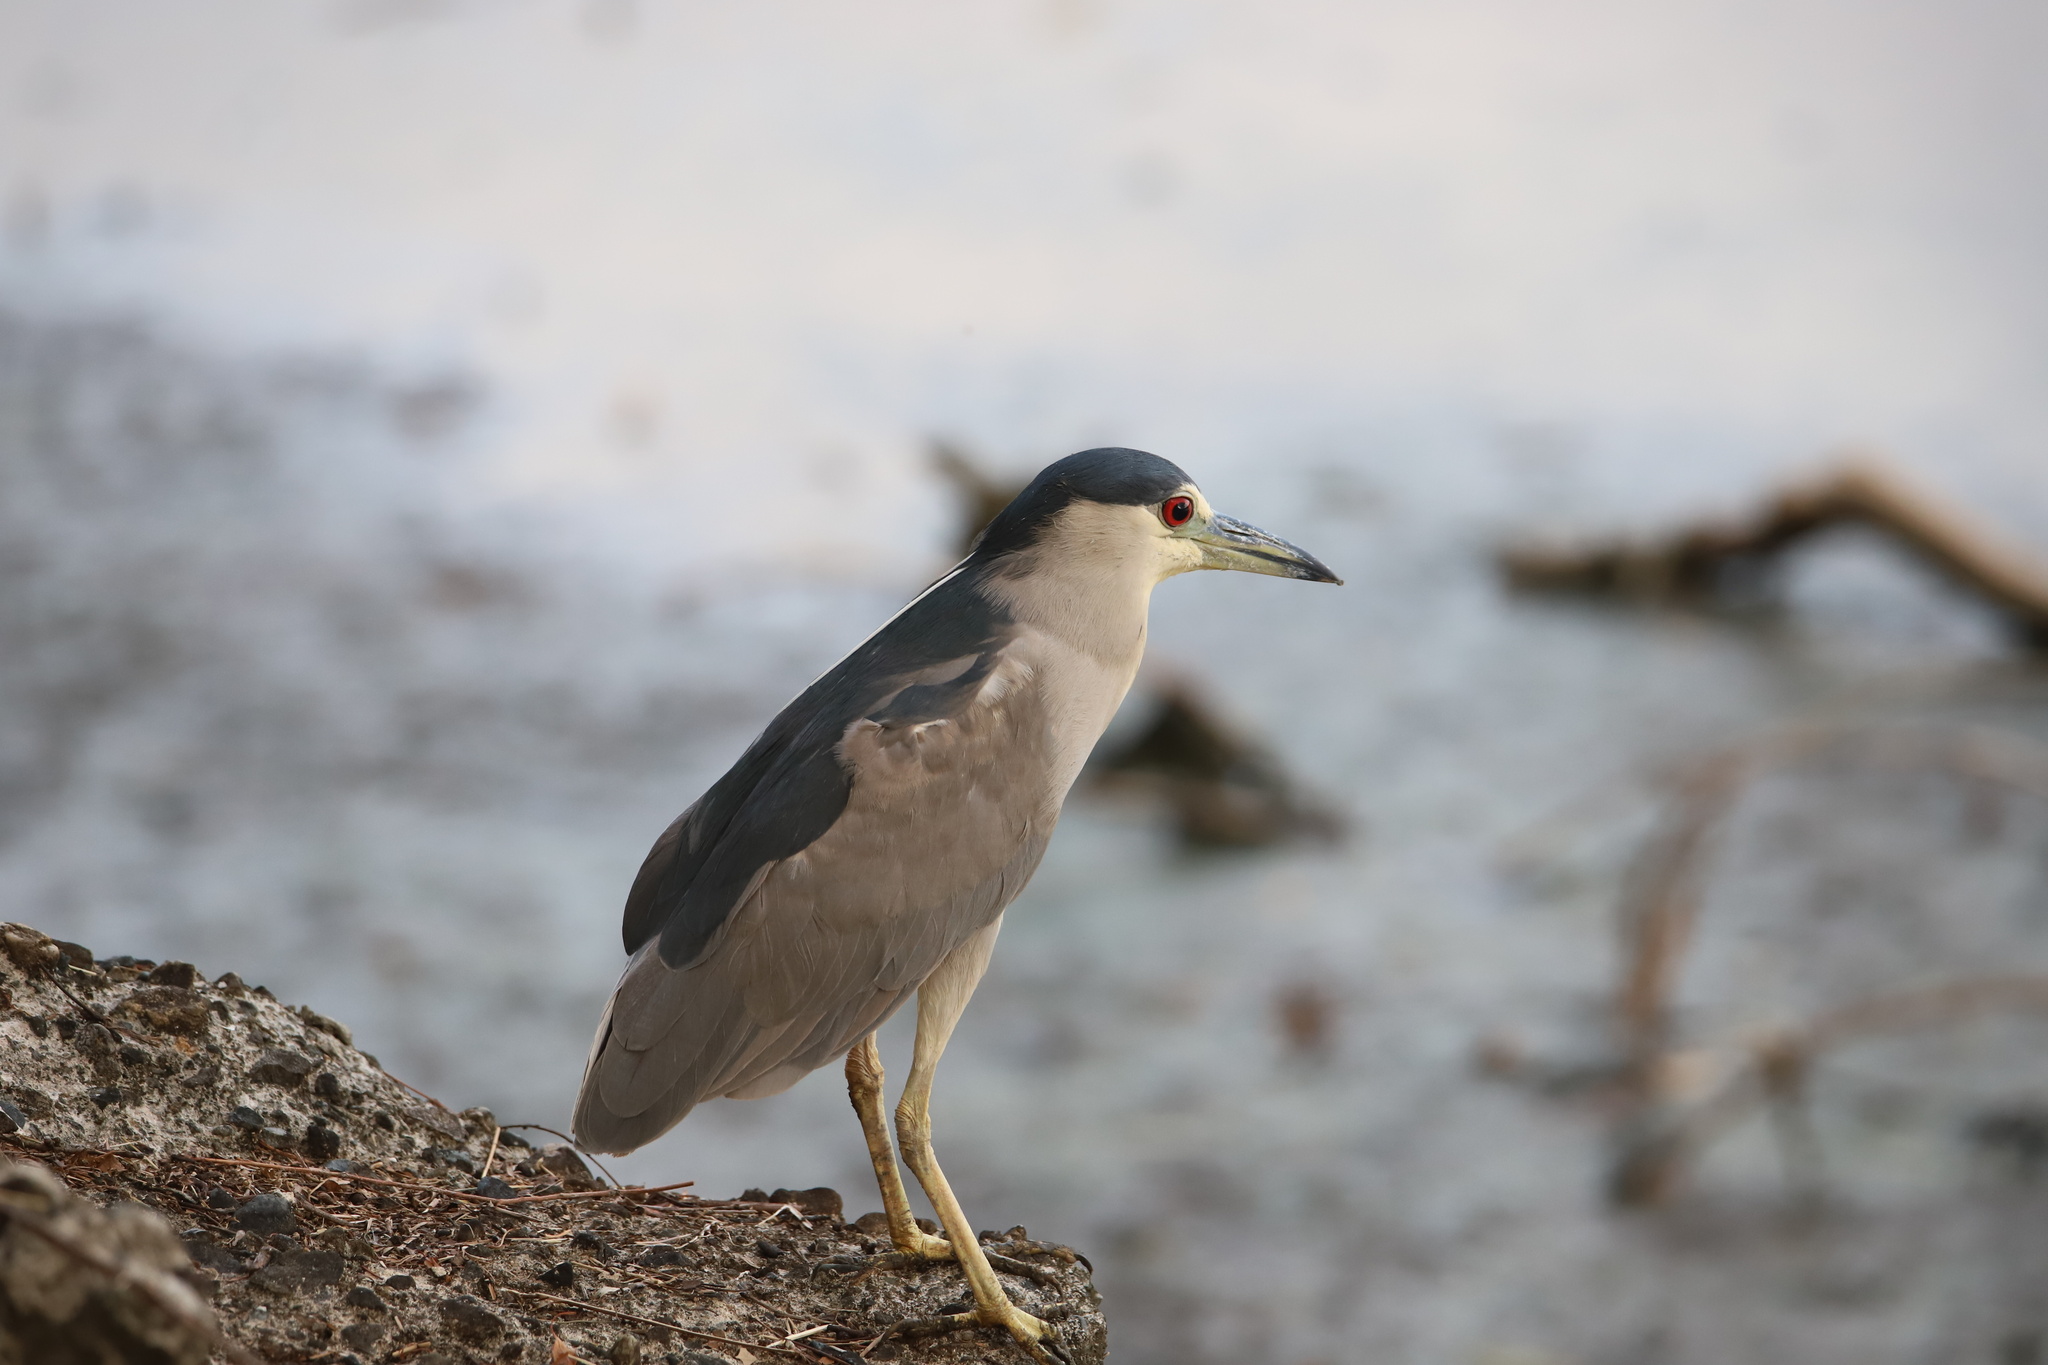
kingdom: Animalia
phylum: Chordata
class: Aves
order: Pelecaniformes
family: Ardeidae
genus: Nycticorax
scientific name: Nycticorax nycticorax
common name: Black-crowned night heron
